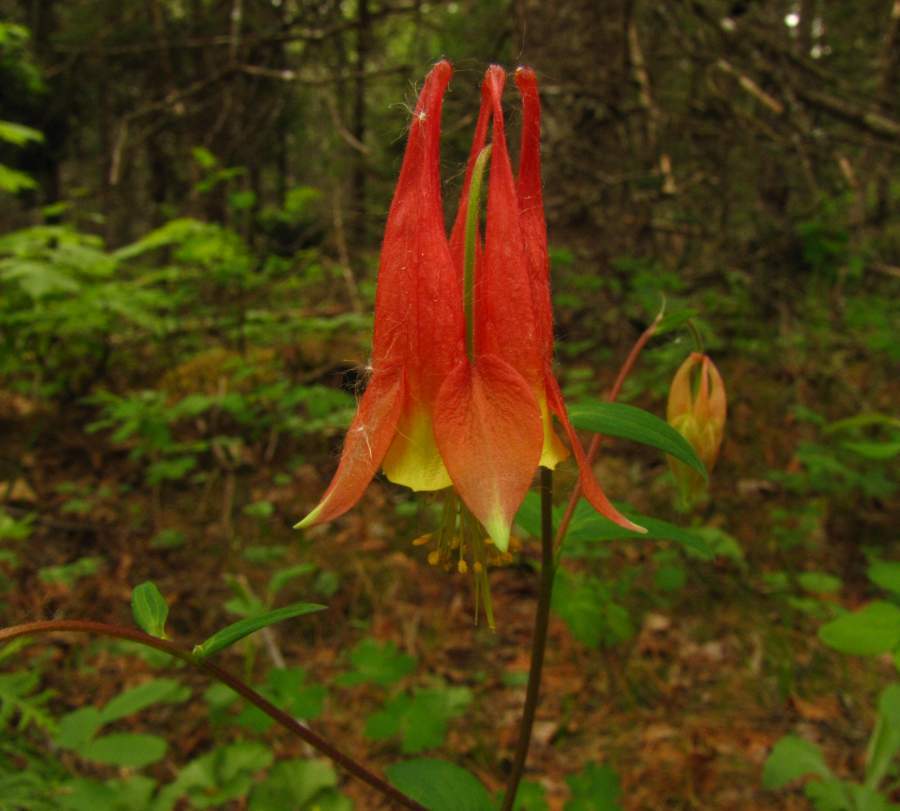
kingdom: Plantae
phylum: Tracheophyta
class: Magnoliopsida
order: Ranunculales
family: Ranunculaceae
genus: Aquilegia
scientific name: Aquilegia canadensis
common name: American columbine
